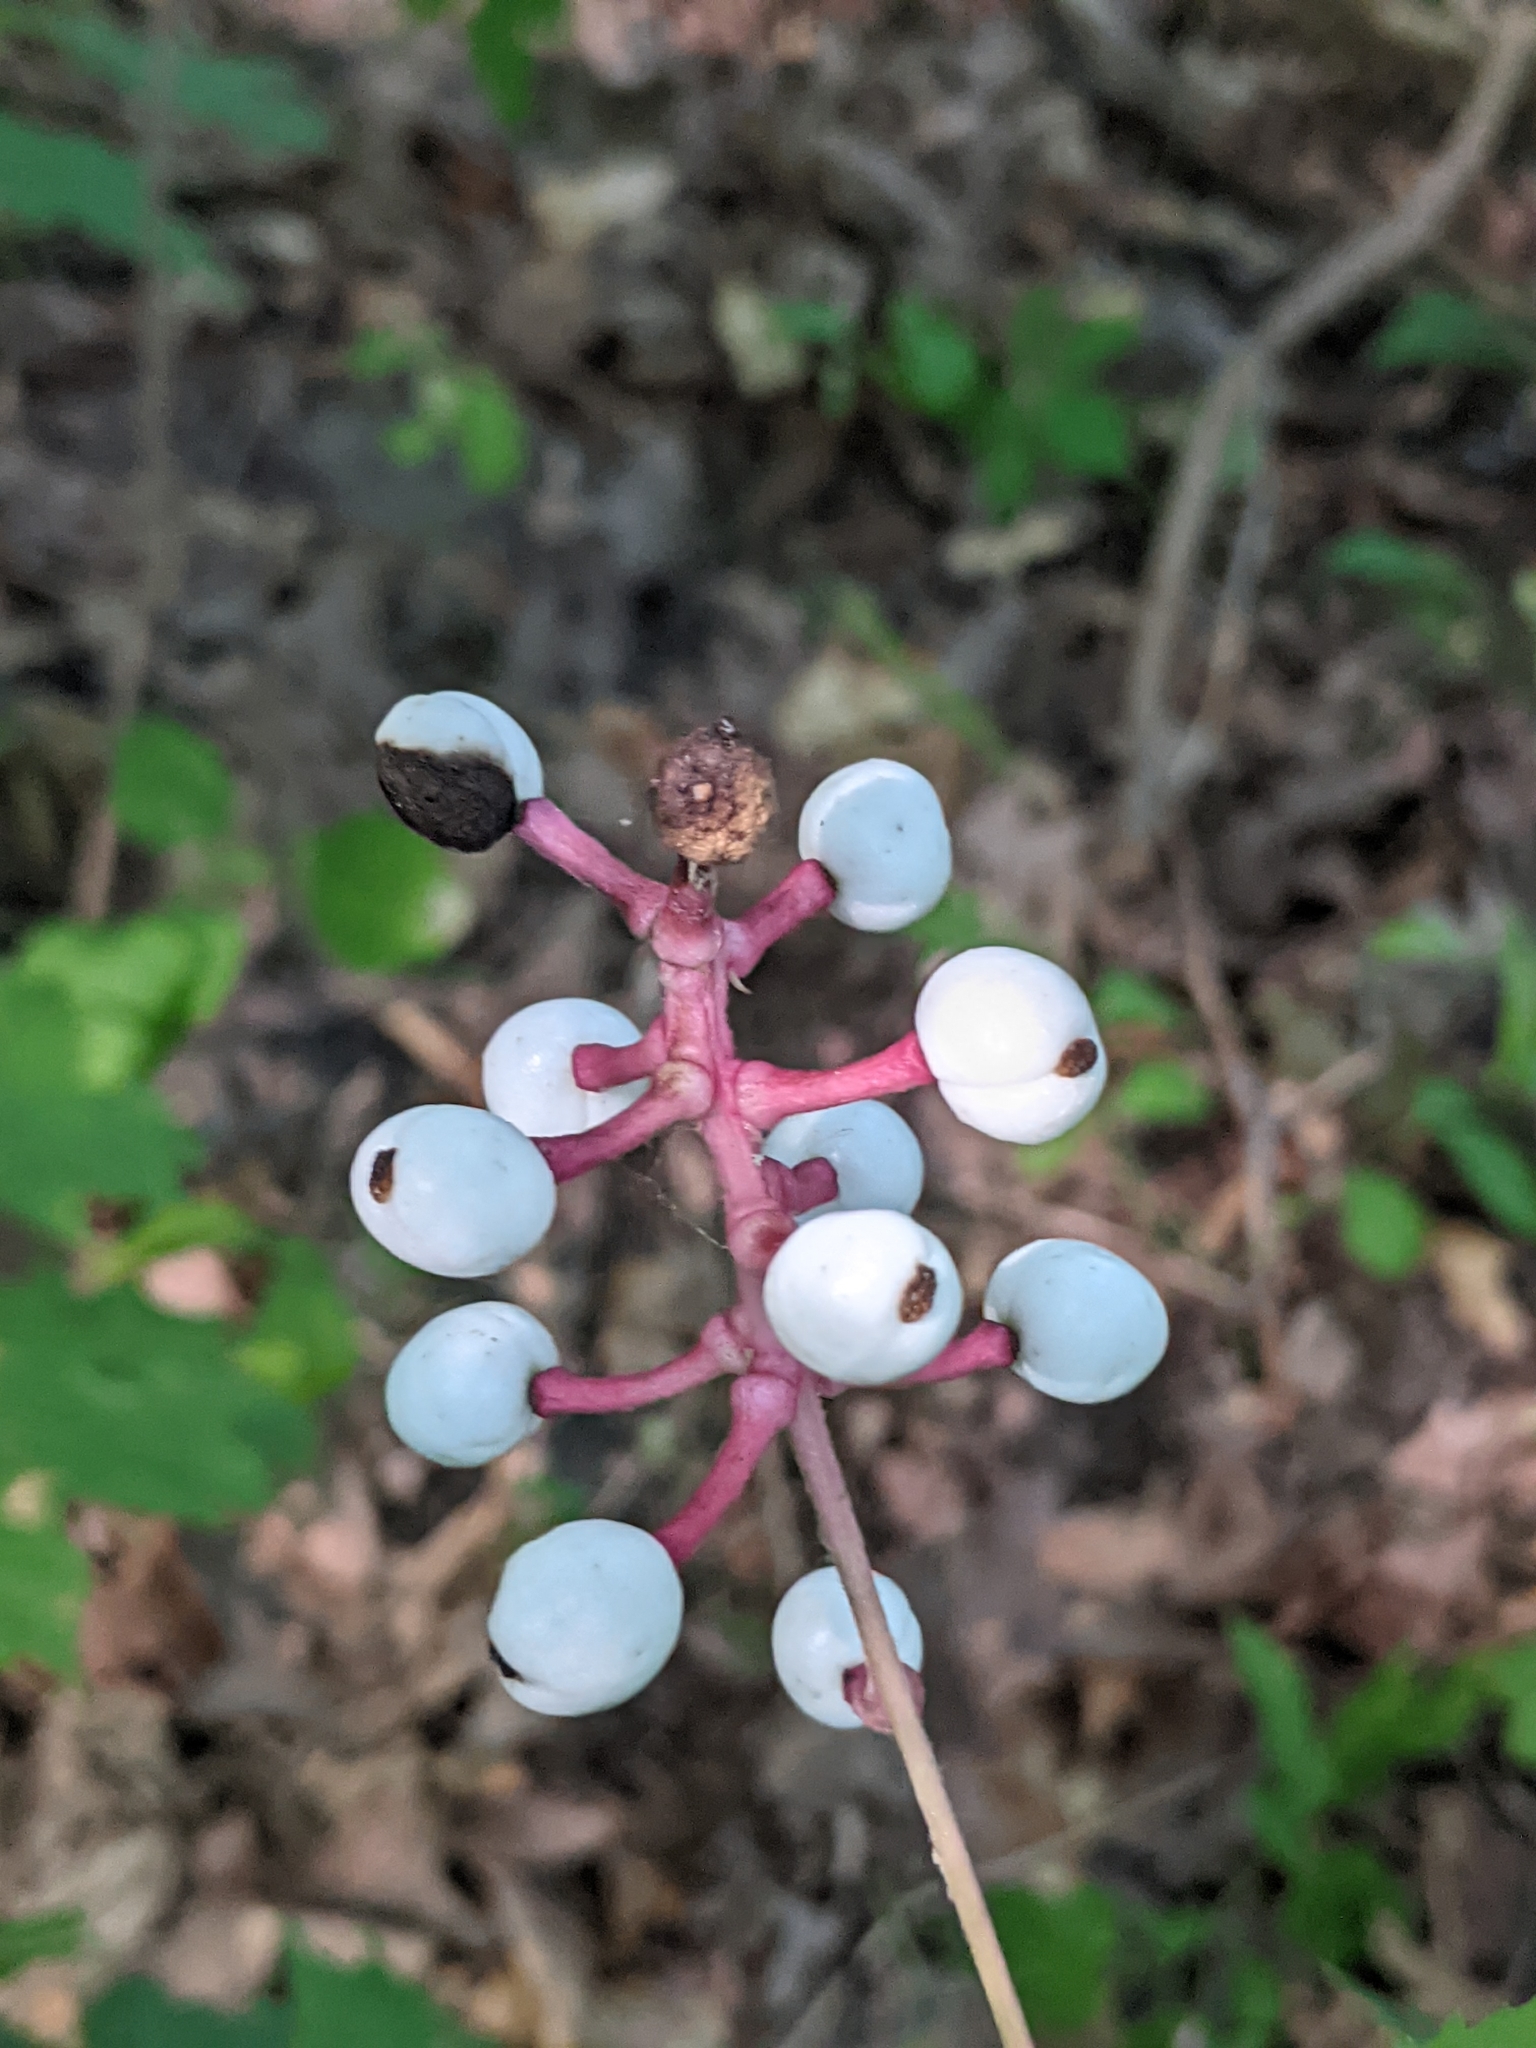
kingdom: Plantae
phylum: Tracheophyta
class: Magnoliopsida
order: Ranunculales
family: Ranunculaceae
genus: Actaea
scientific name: Actaea pachypoda
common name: Doll's-eyes
